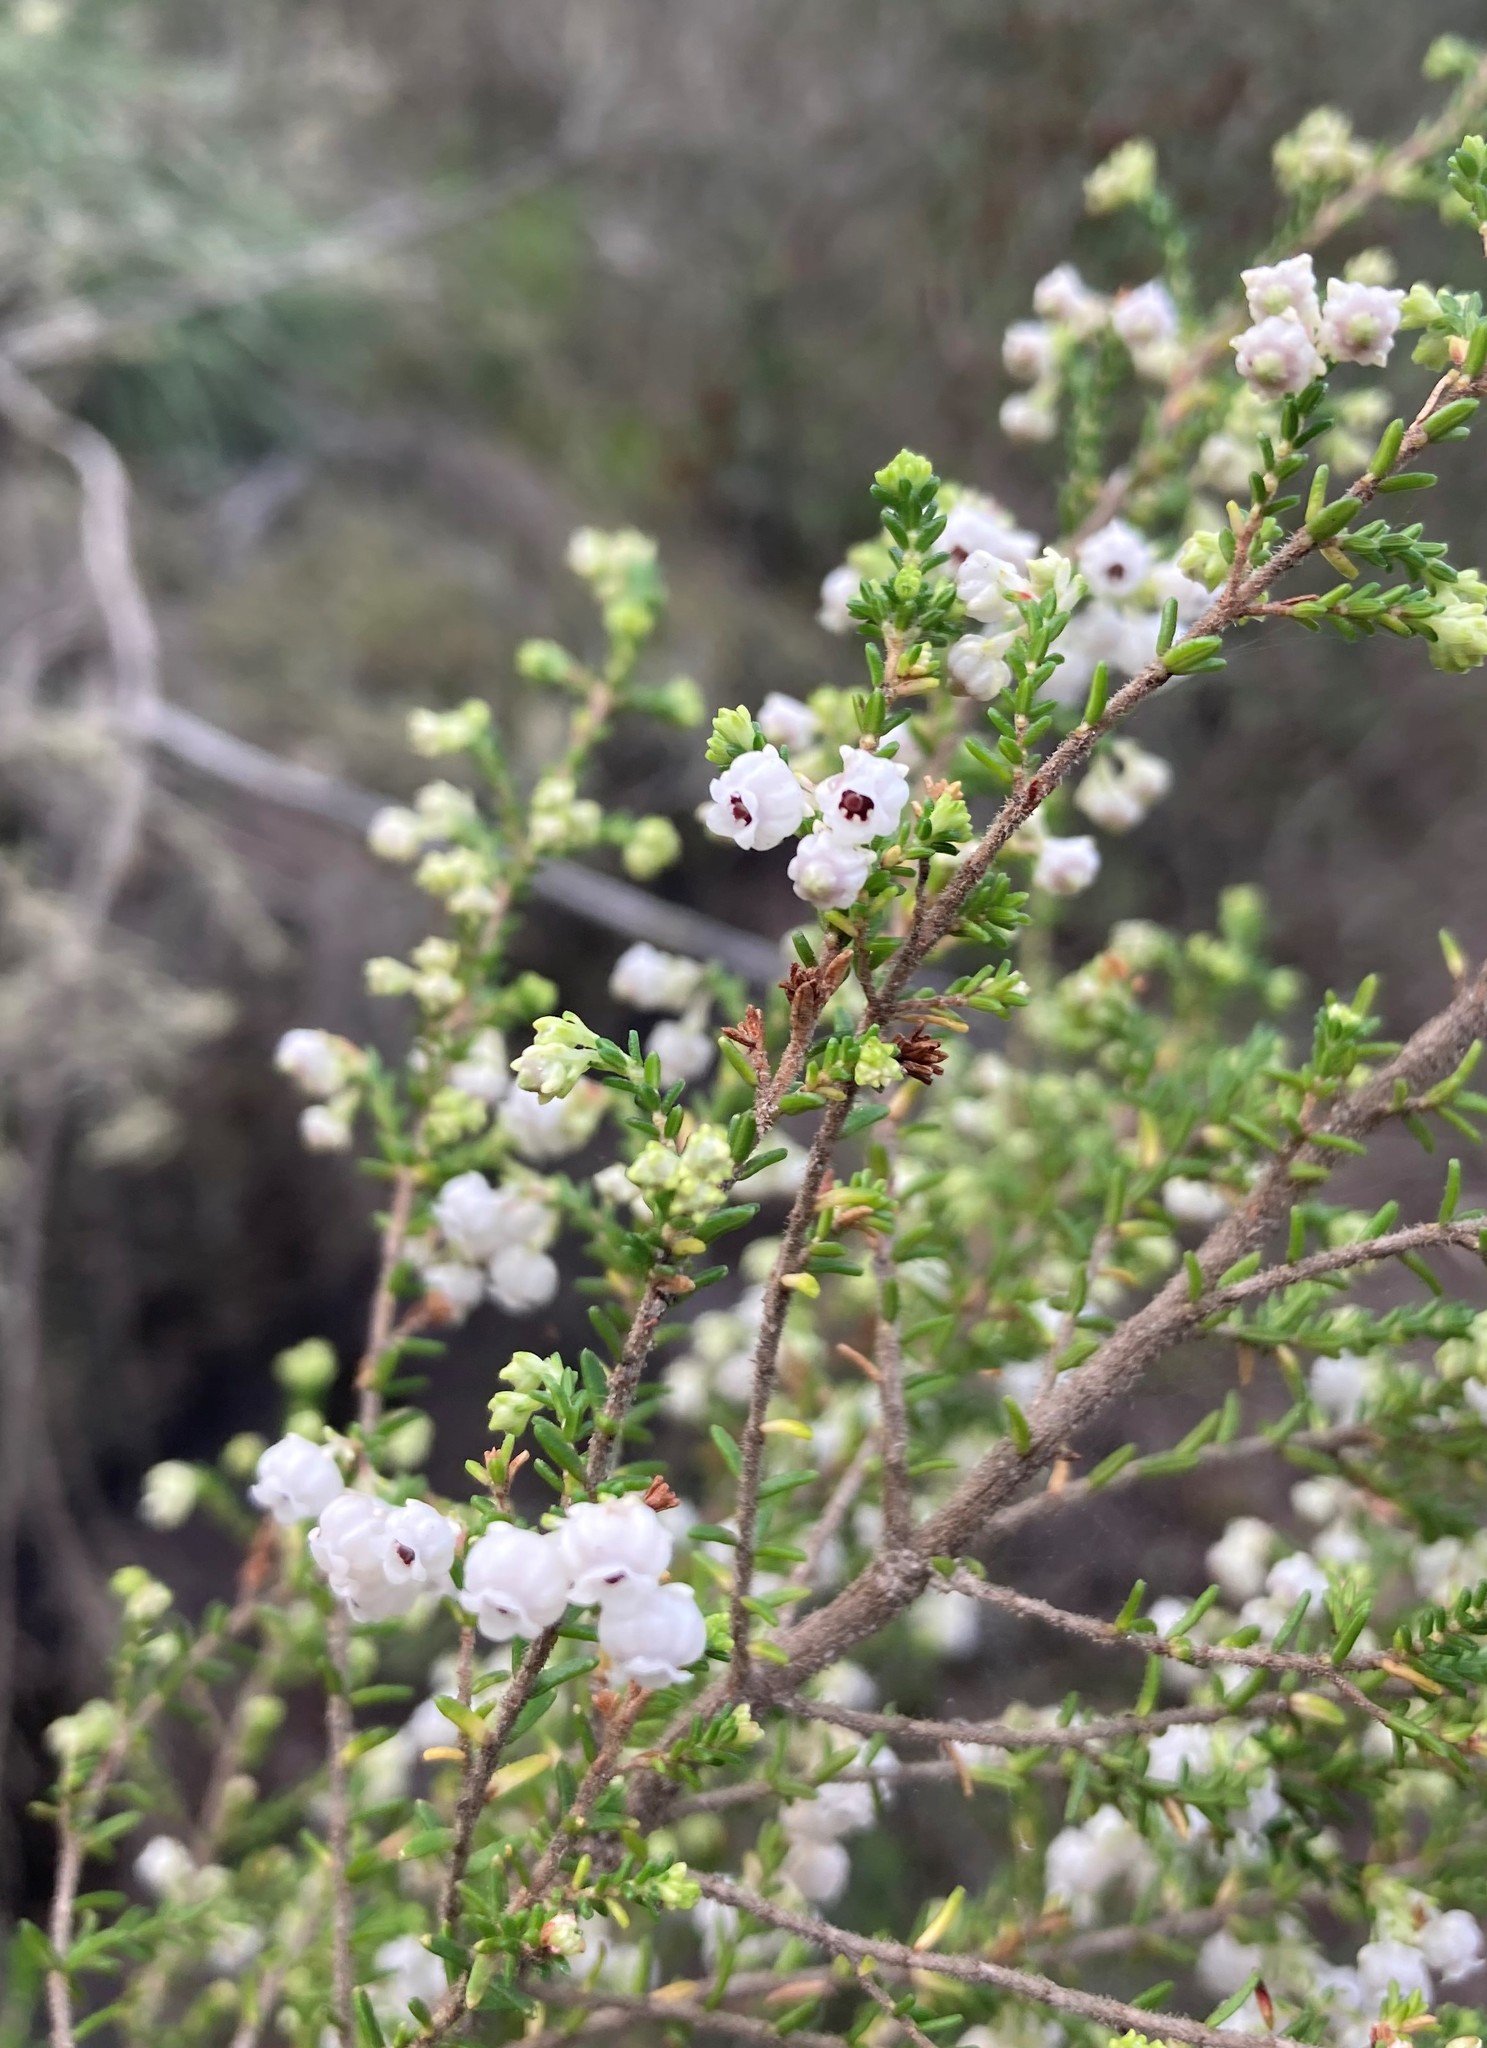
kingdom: Plantae
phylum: Tracheophyta
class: Magnoliopsida
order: Ericales
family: Ericaceae
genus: Erica
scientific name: Erica formosa
